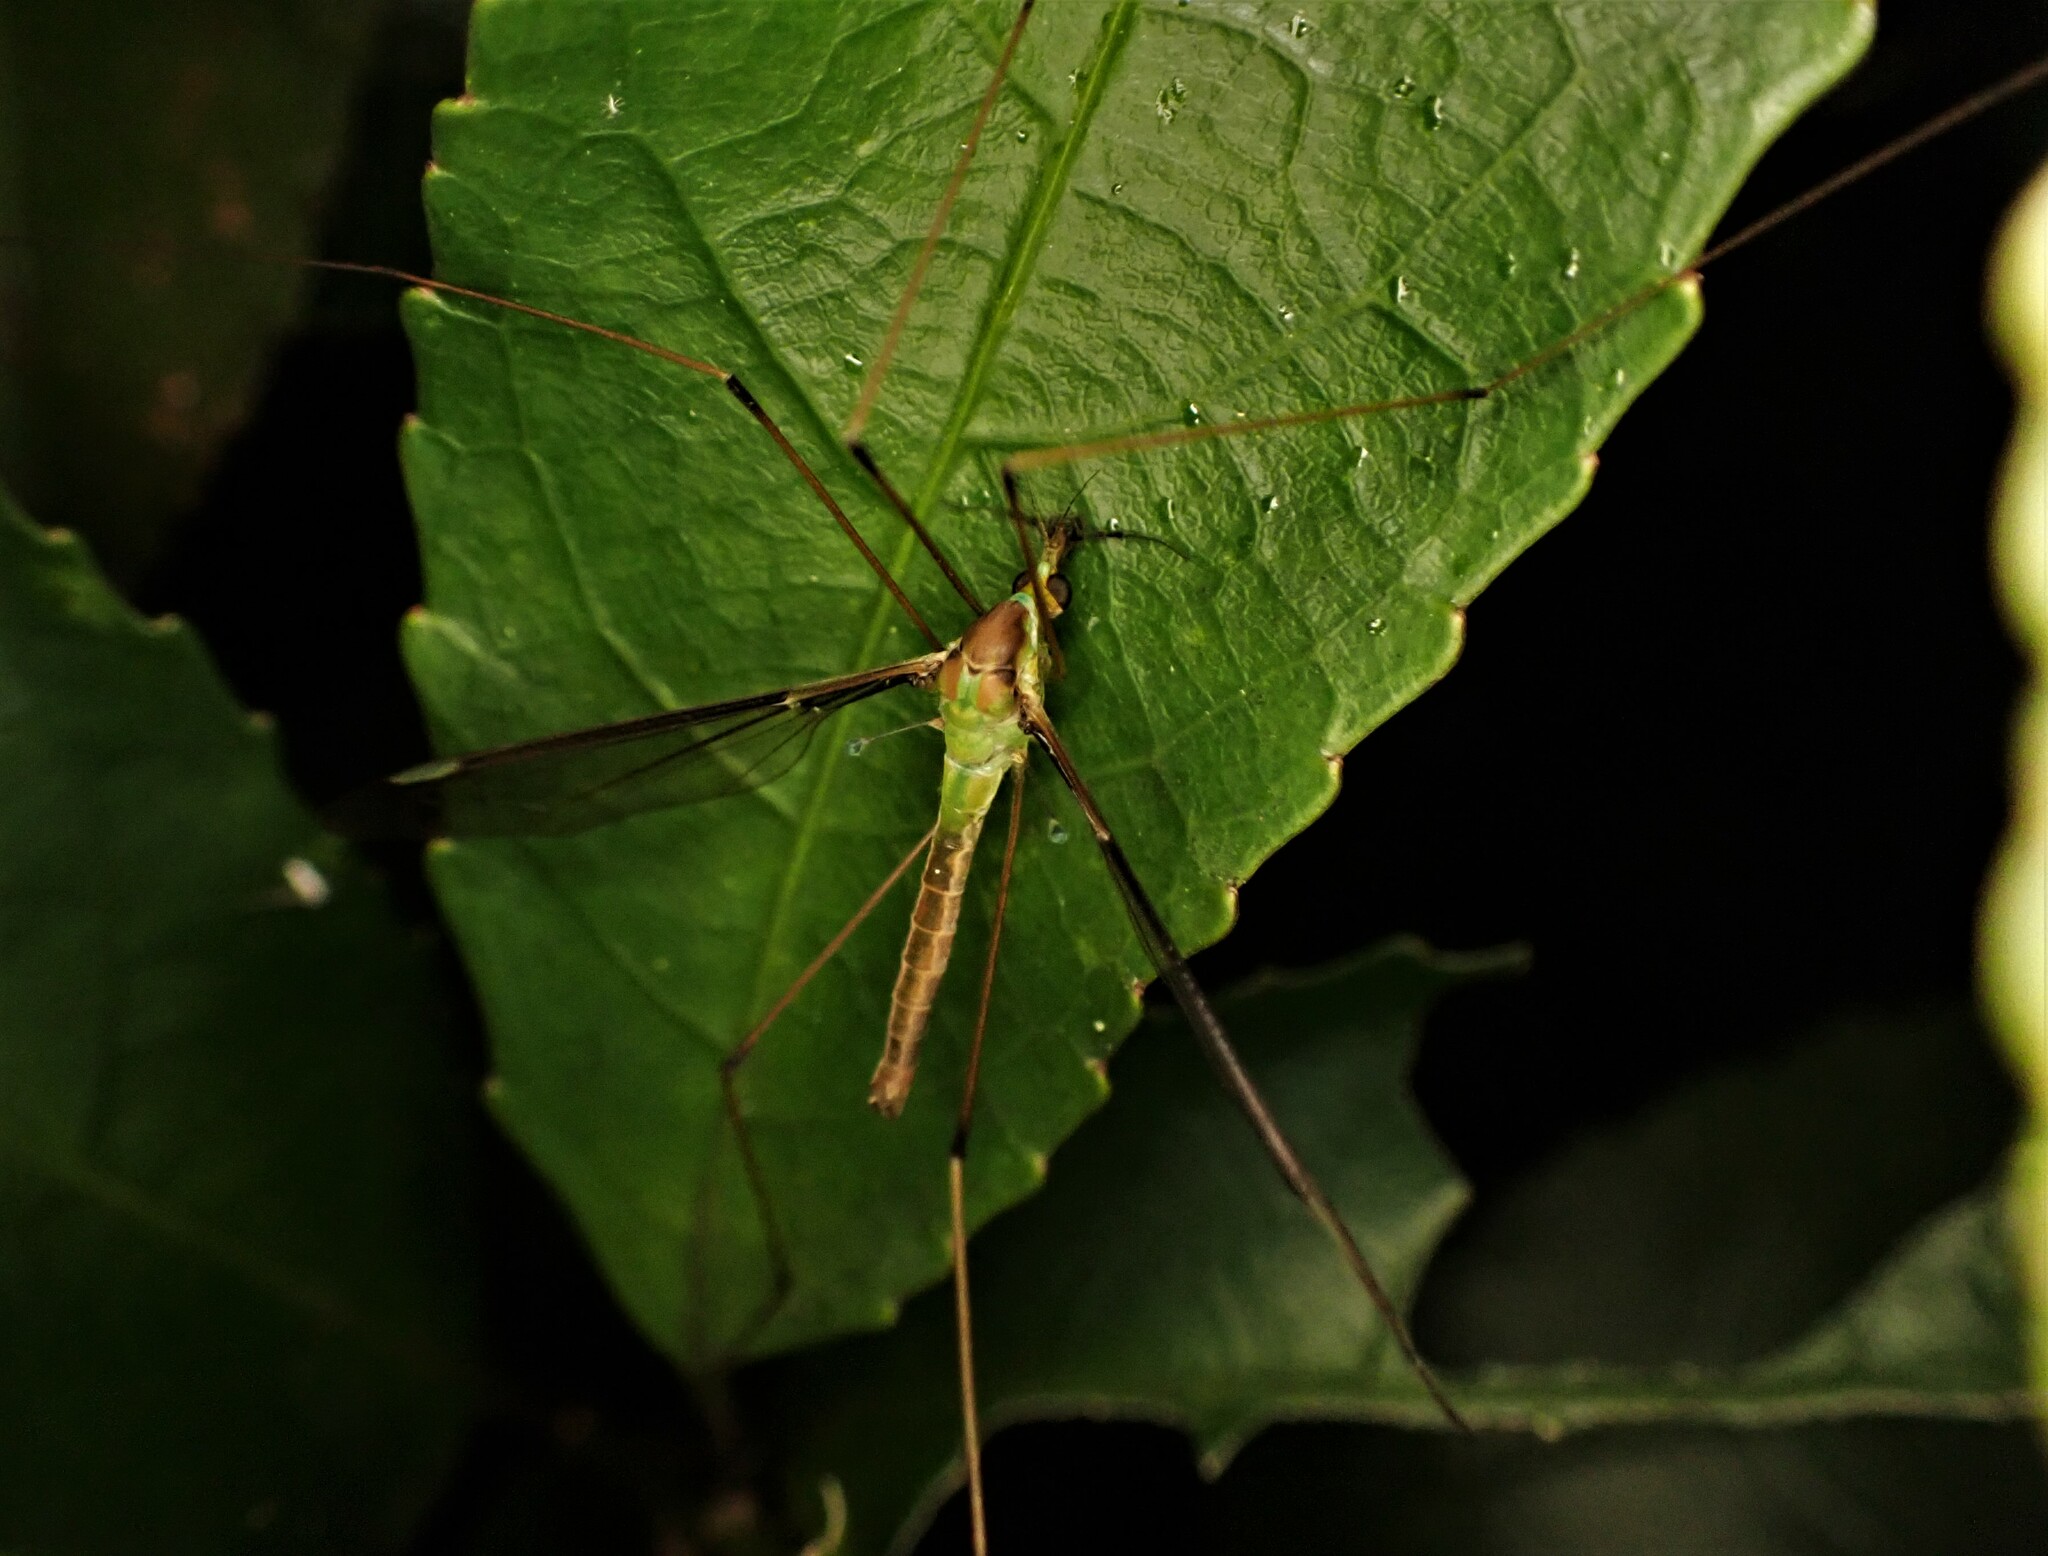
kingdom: Animalia
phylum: Arthropoda
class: Insecta
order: Diptera
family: Tipulidae
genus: Leptotarsus
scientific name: Leptotarsus albistigma
